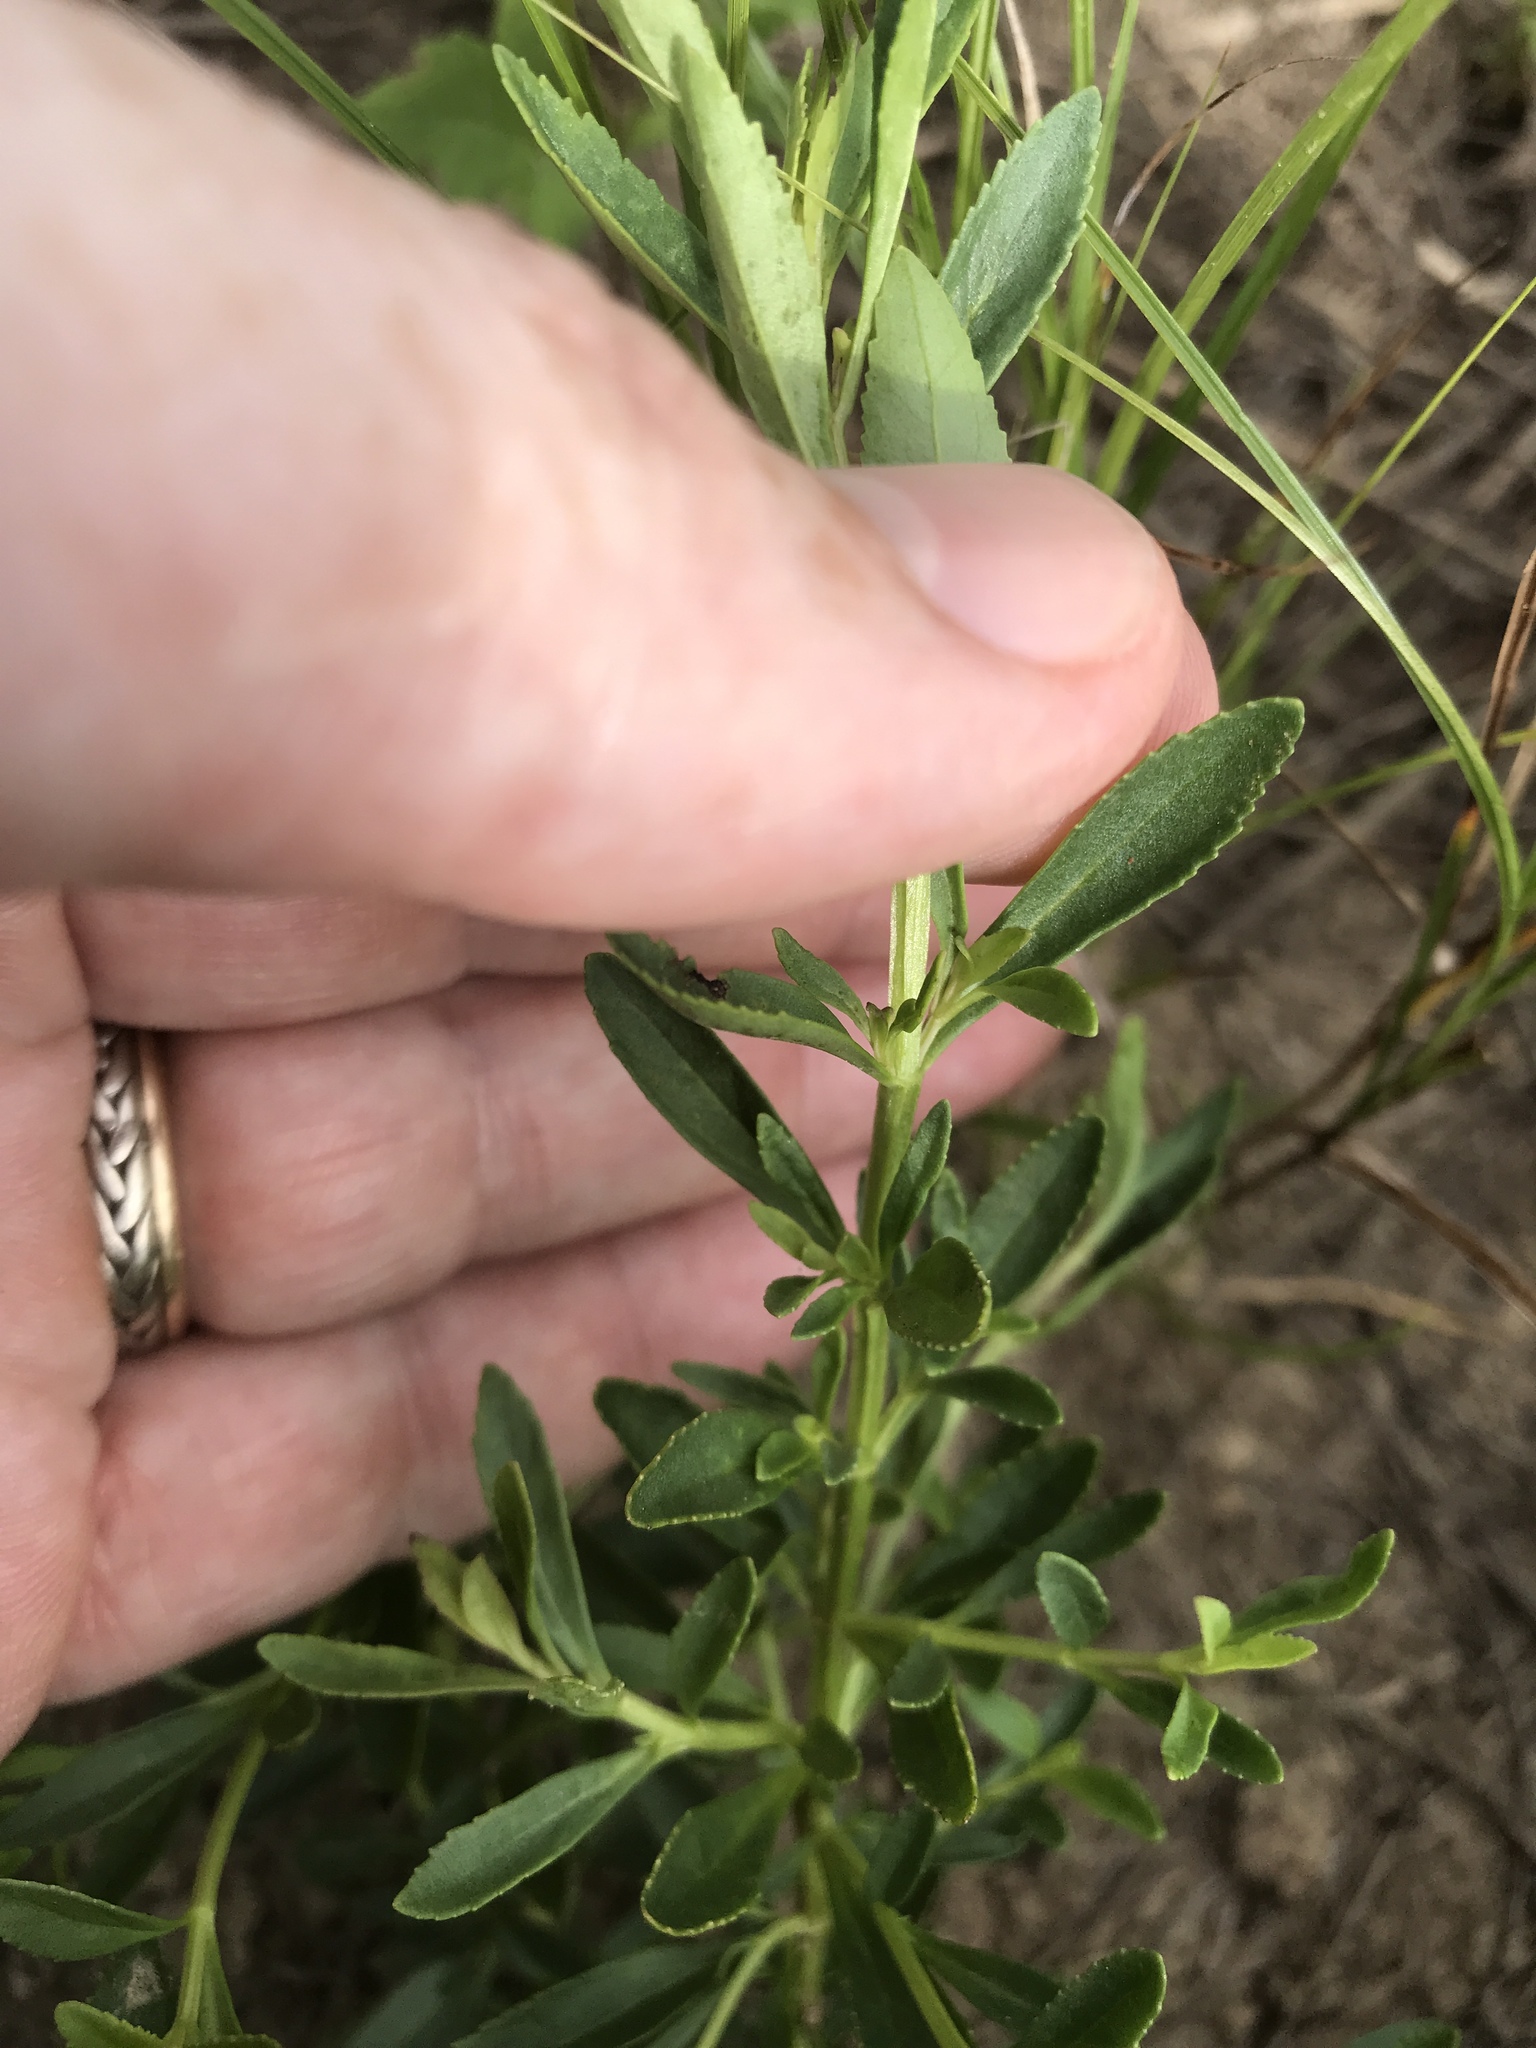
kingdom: Plantae
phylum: Tracheophyta
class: Magnoliopsida
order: Lamiales
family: Plantaginaceae
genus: Mecardonia
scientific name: Mecardonia acuminata
